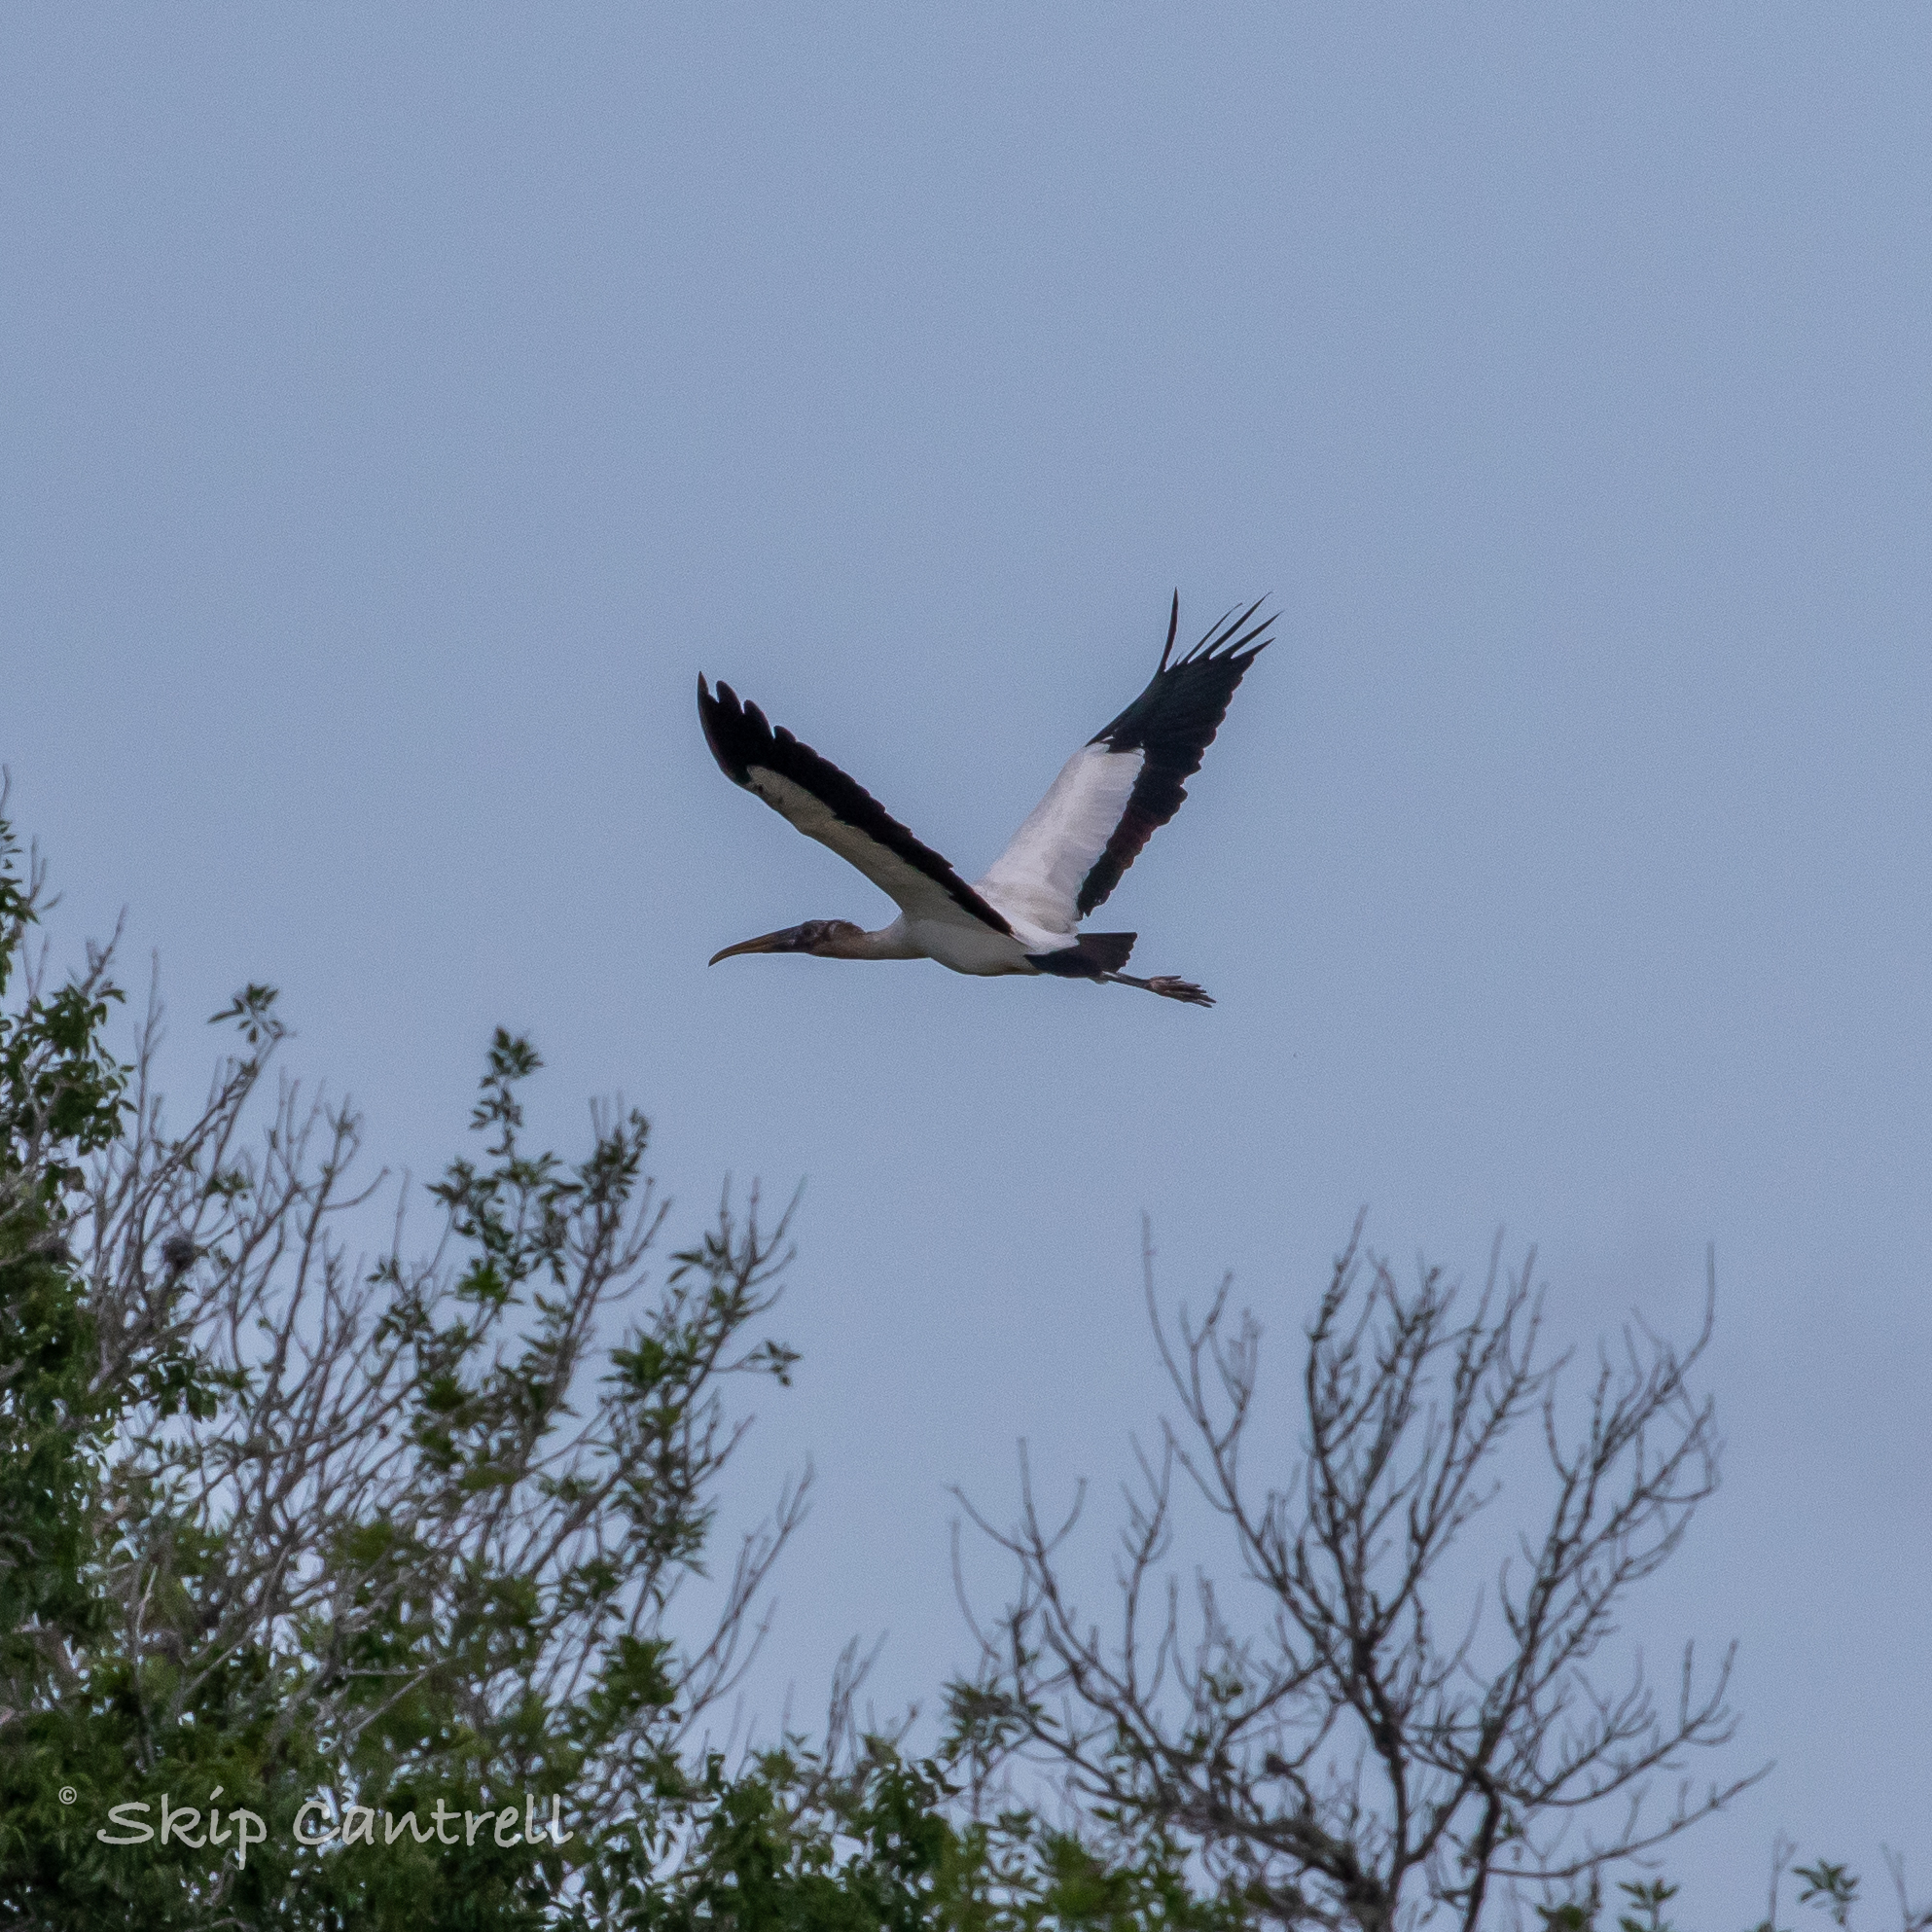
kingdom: Animalia
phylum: Chordata
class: Aves
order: Ciconiiformes
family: Ciconiidae
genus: Mycteria
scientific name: Mycteria americana
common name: Wood stork
